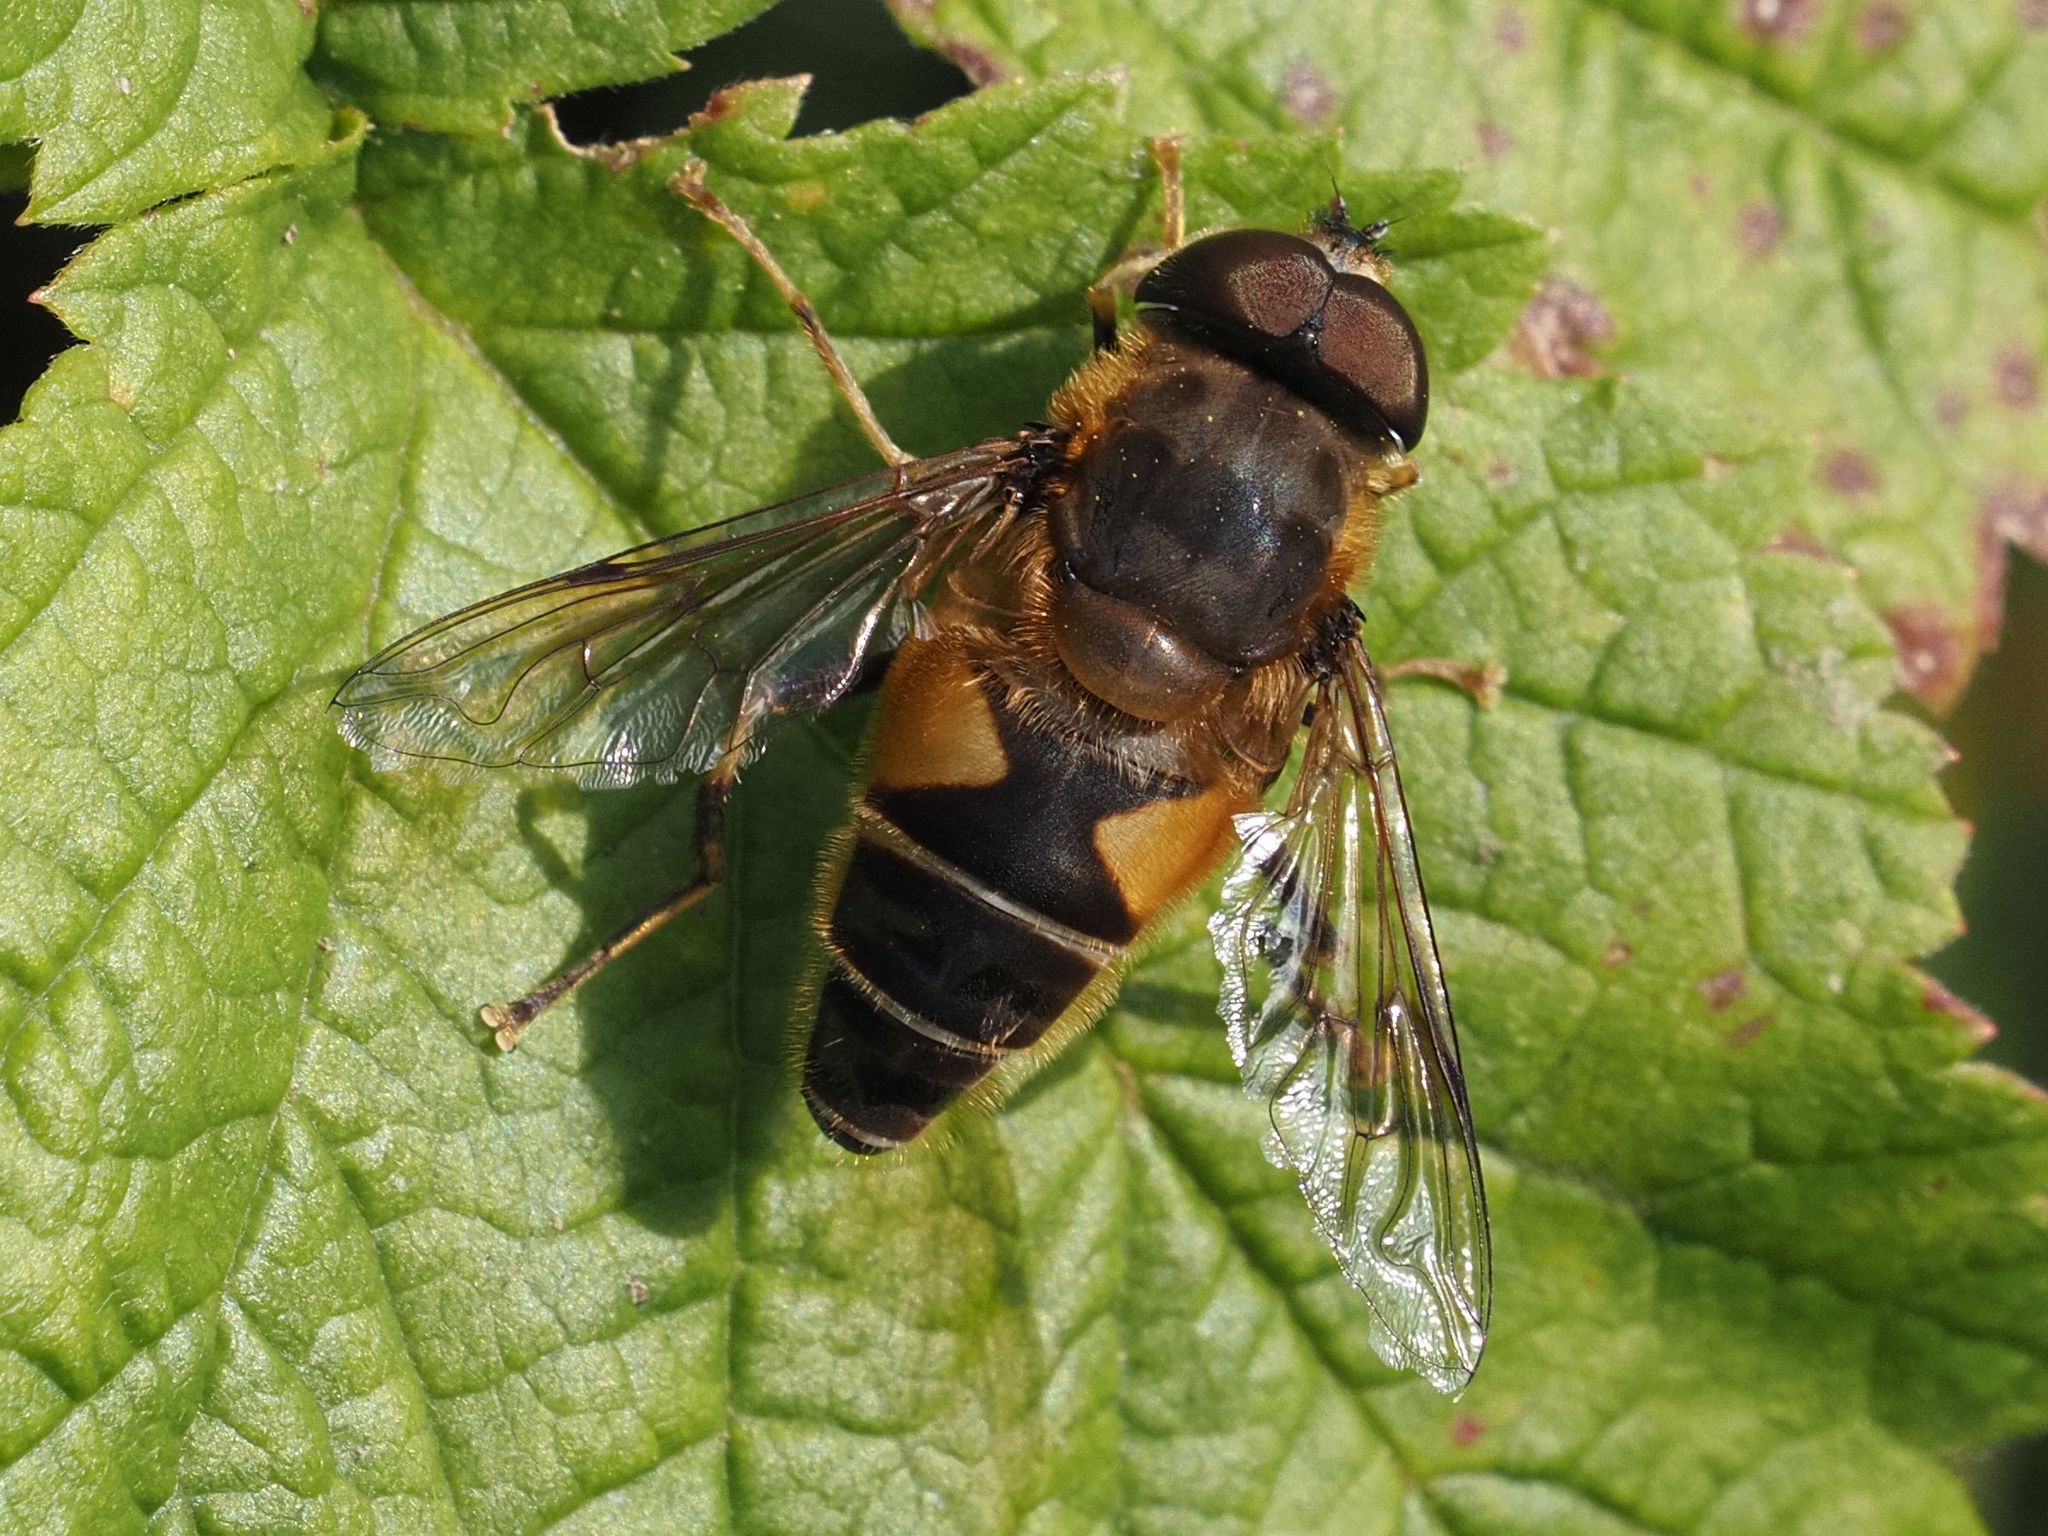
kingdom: Animalia
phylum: Arthropoda
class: Insecta
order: Diptera
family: Syrphidae
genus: Eristalis
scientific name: Eristalis pertinax
